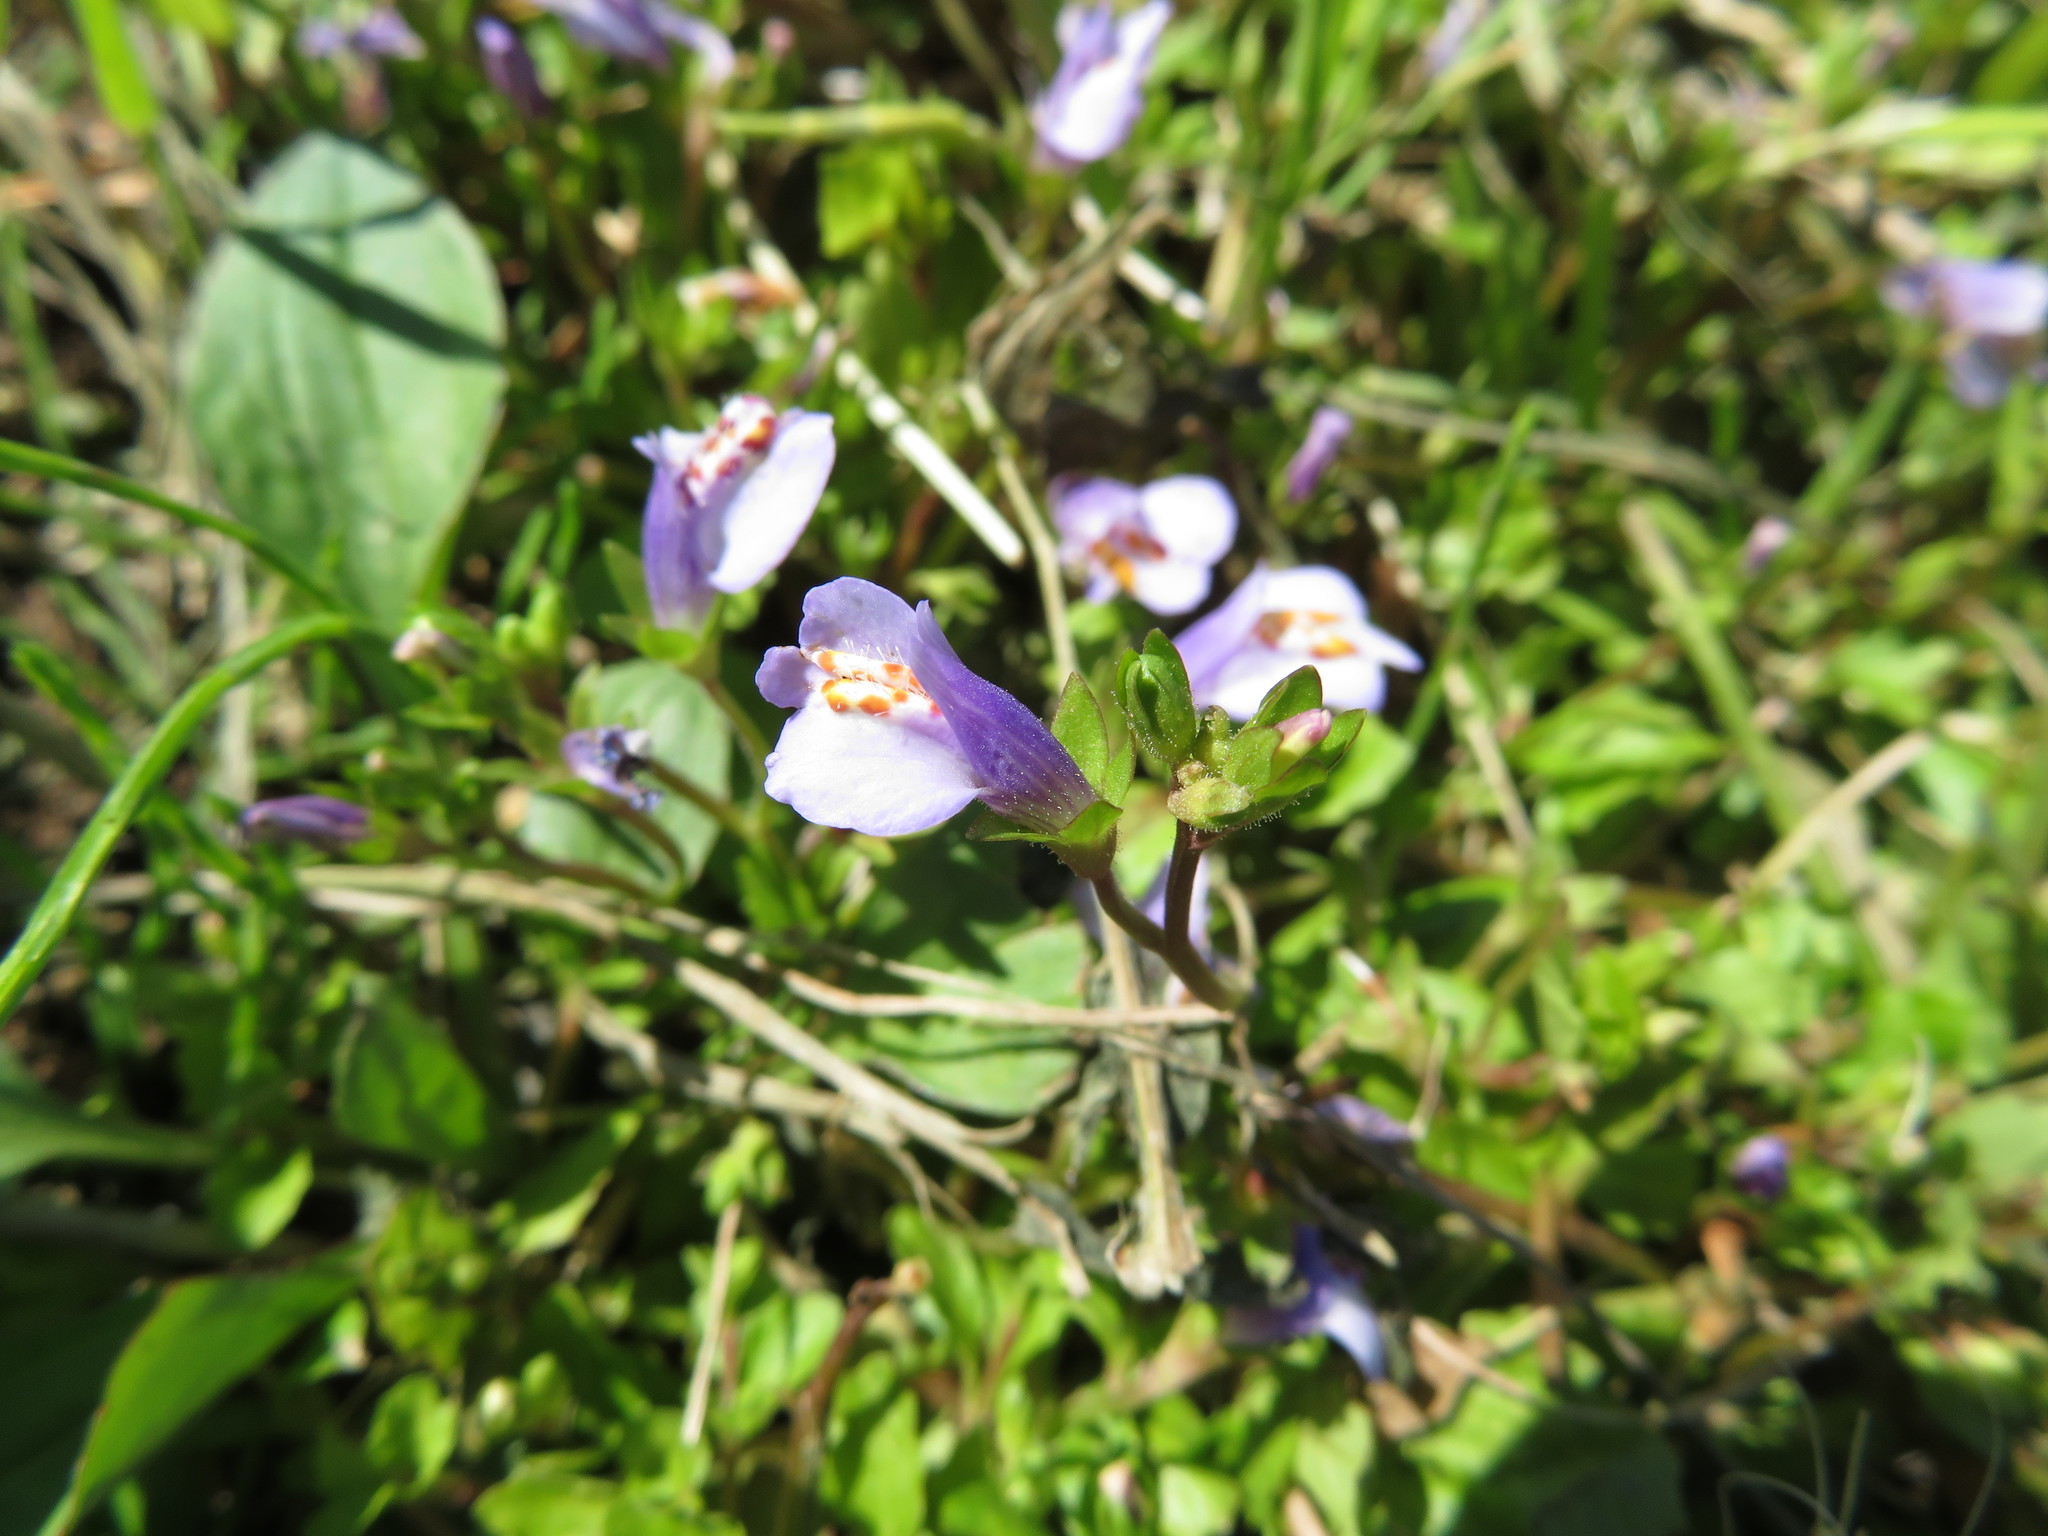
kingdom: Plantae
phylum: Tracheophyta
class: Magnoliopsida
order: Lamiales
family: Mazaceae
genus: Mazus
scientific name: Mazus miquelii
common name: Miquel's mazus
